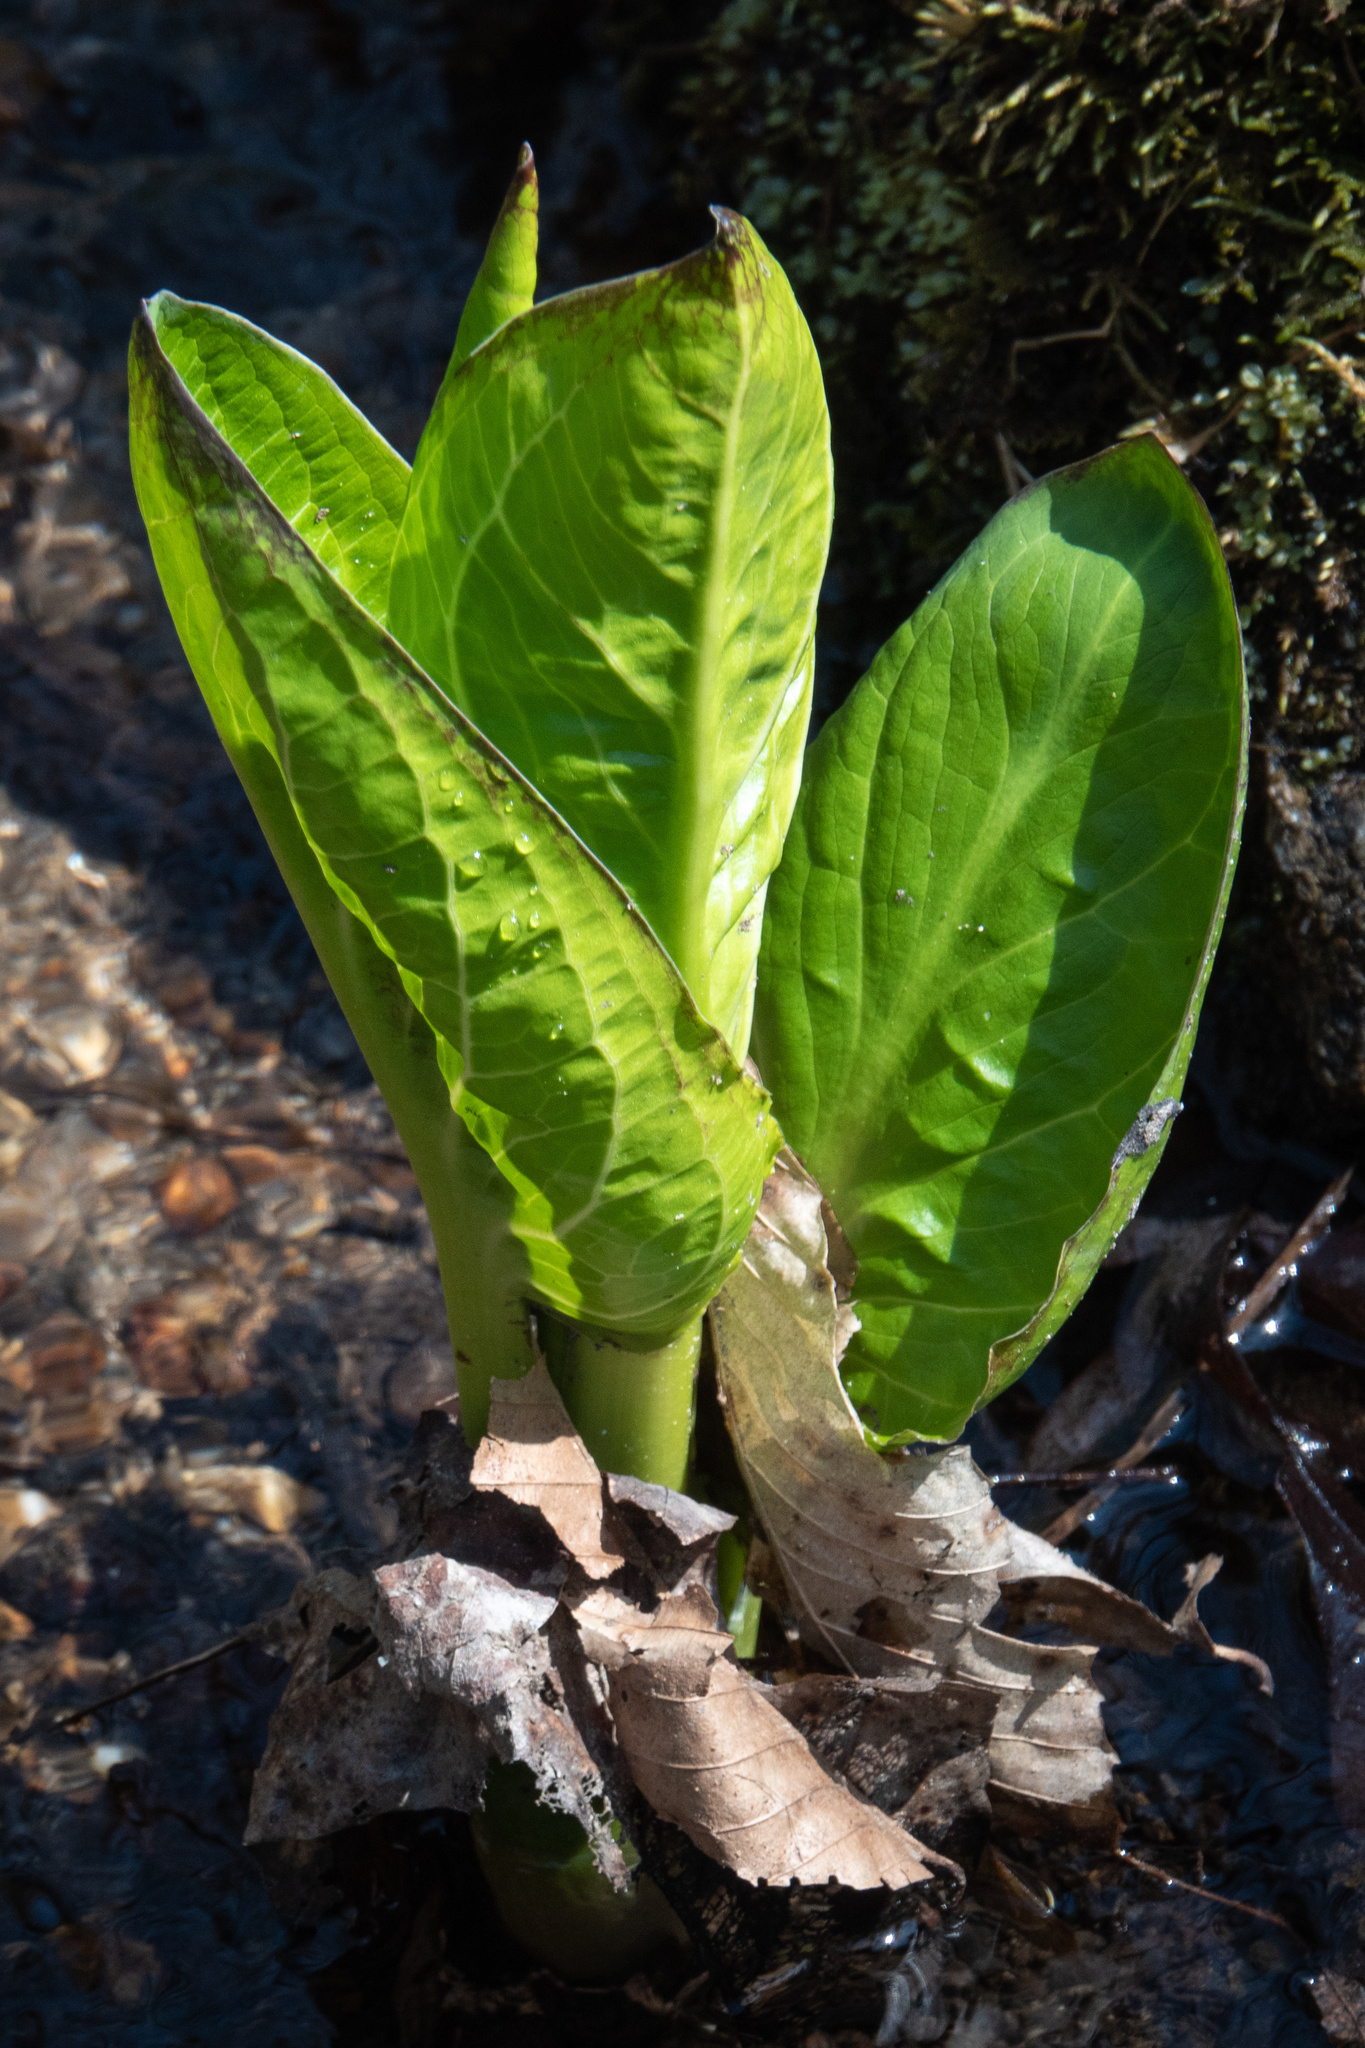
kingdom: Plantae
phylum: Tracheophyta
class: Liliopsida
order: Alismatales
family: Araceae
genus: Symplocarpus
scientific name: Symplocarpus foetidus
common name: Eastern skunk cabbage
